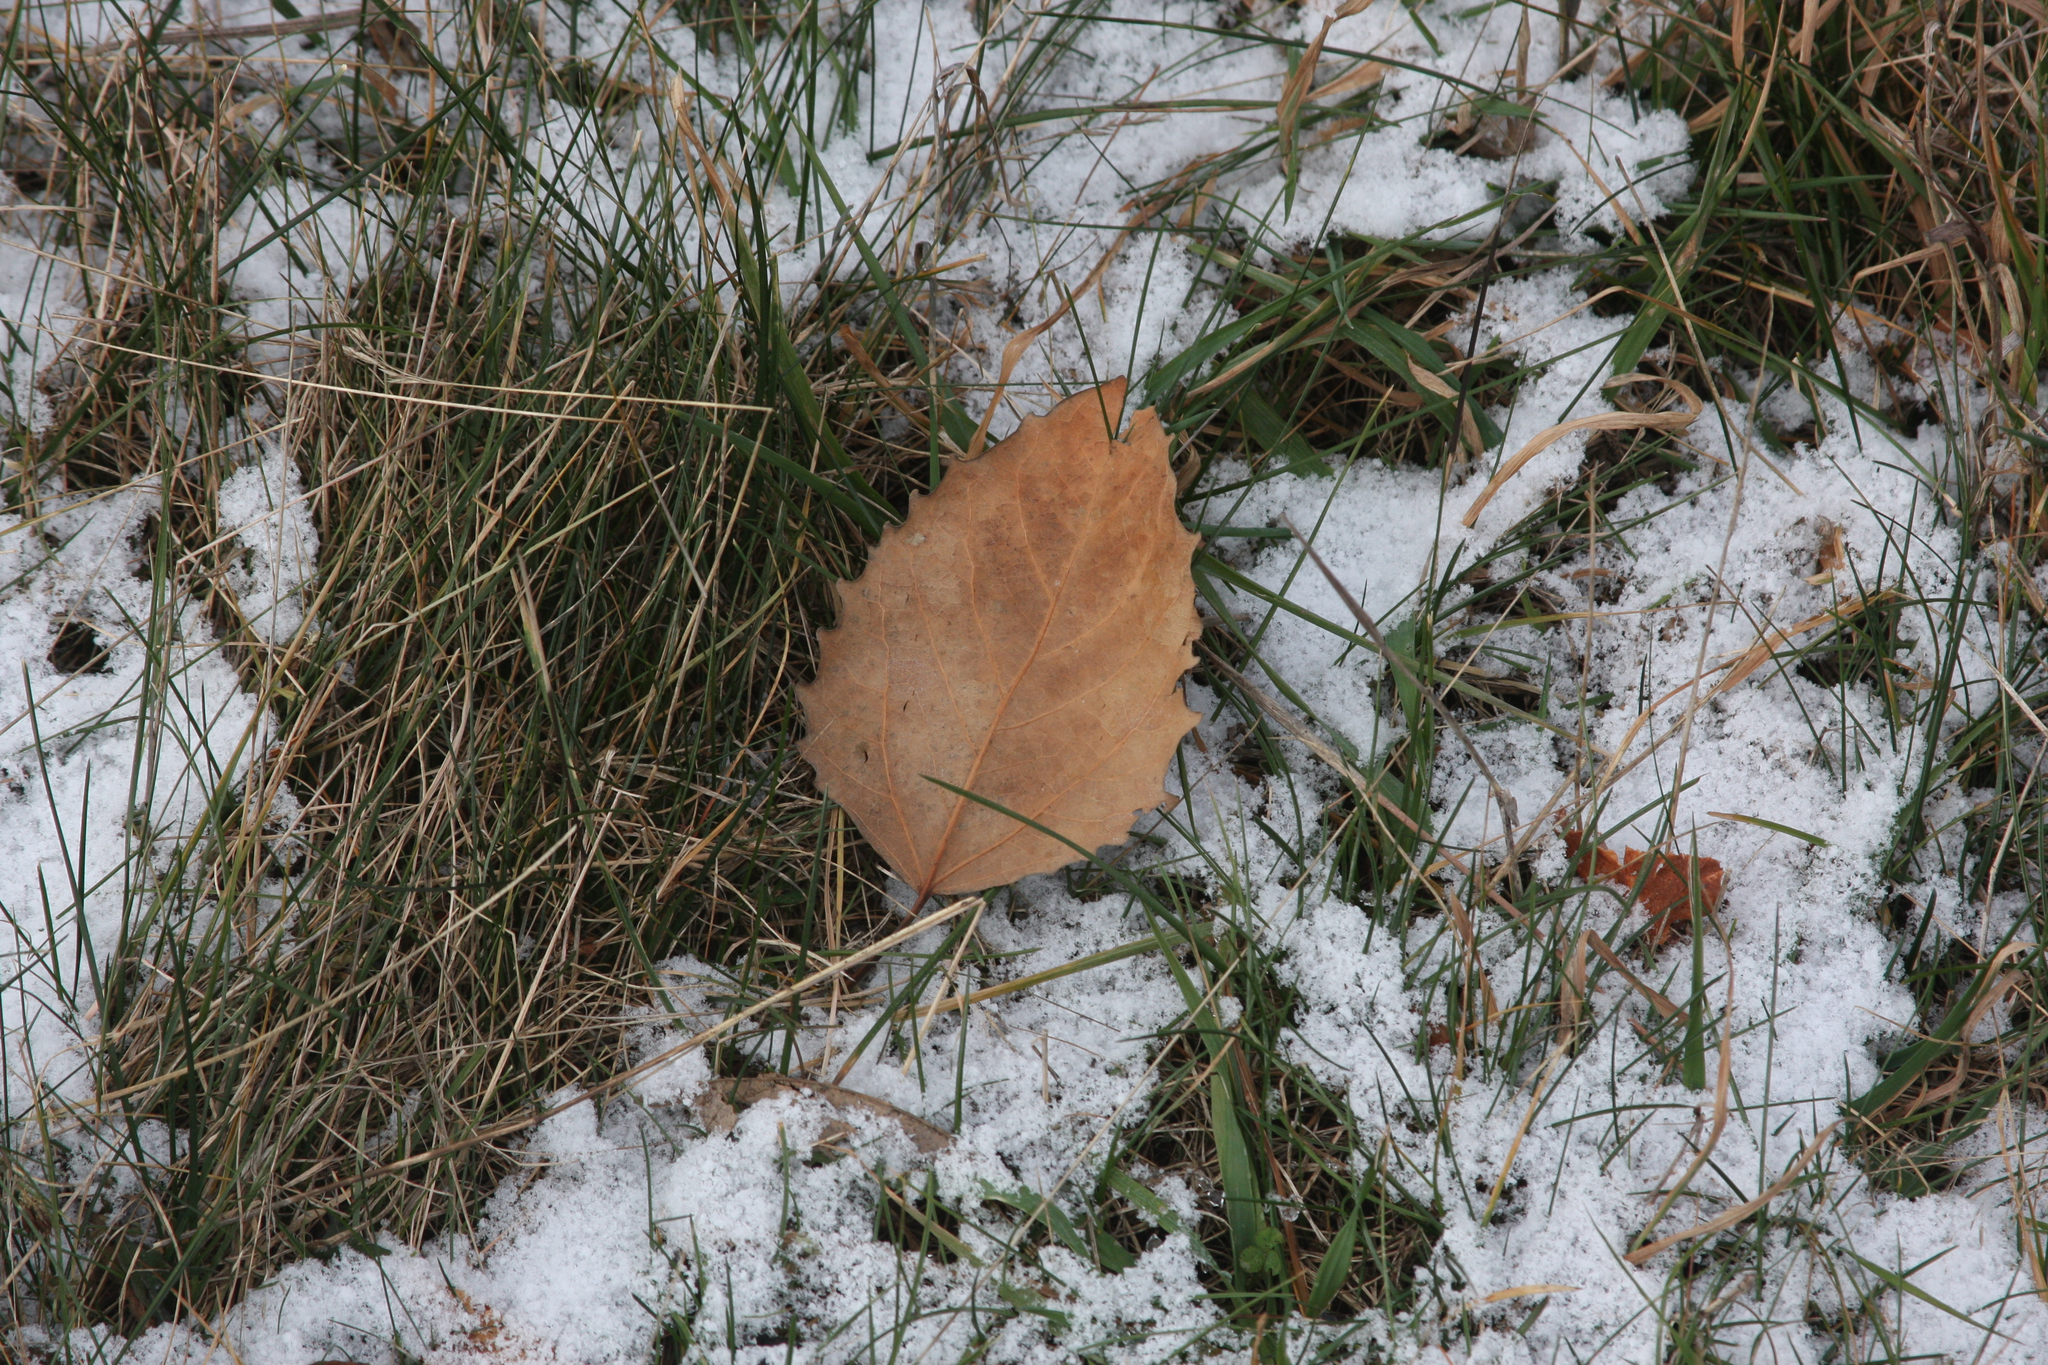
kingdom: Plantae
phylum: Tracheophyta
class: Magnoliopsida
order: Malpighiales
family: Salicaceae
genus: Populus
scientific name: Populus grandidentata
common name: Bigtooth aspen
